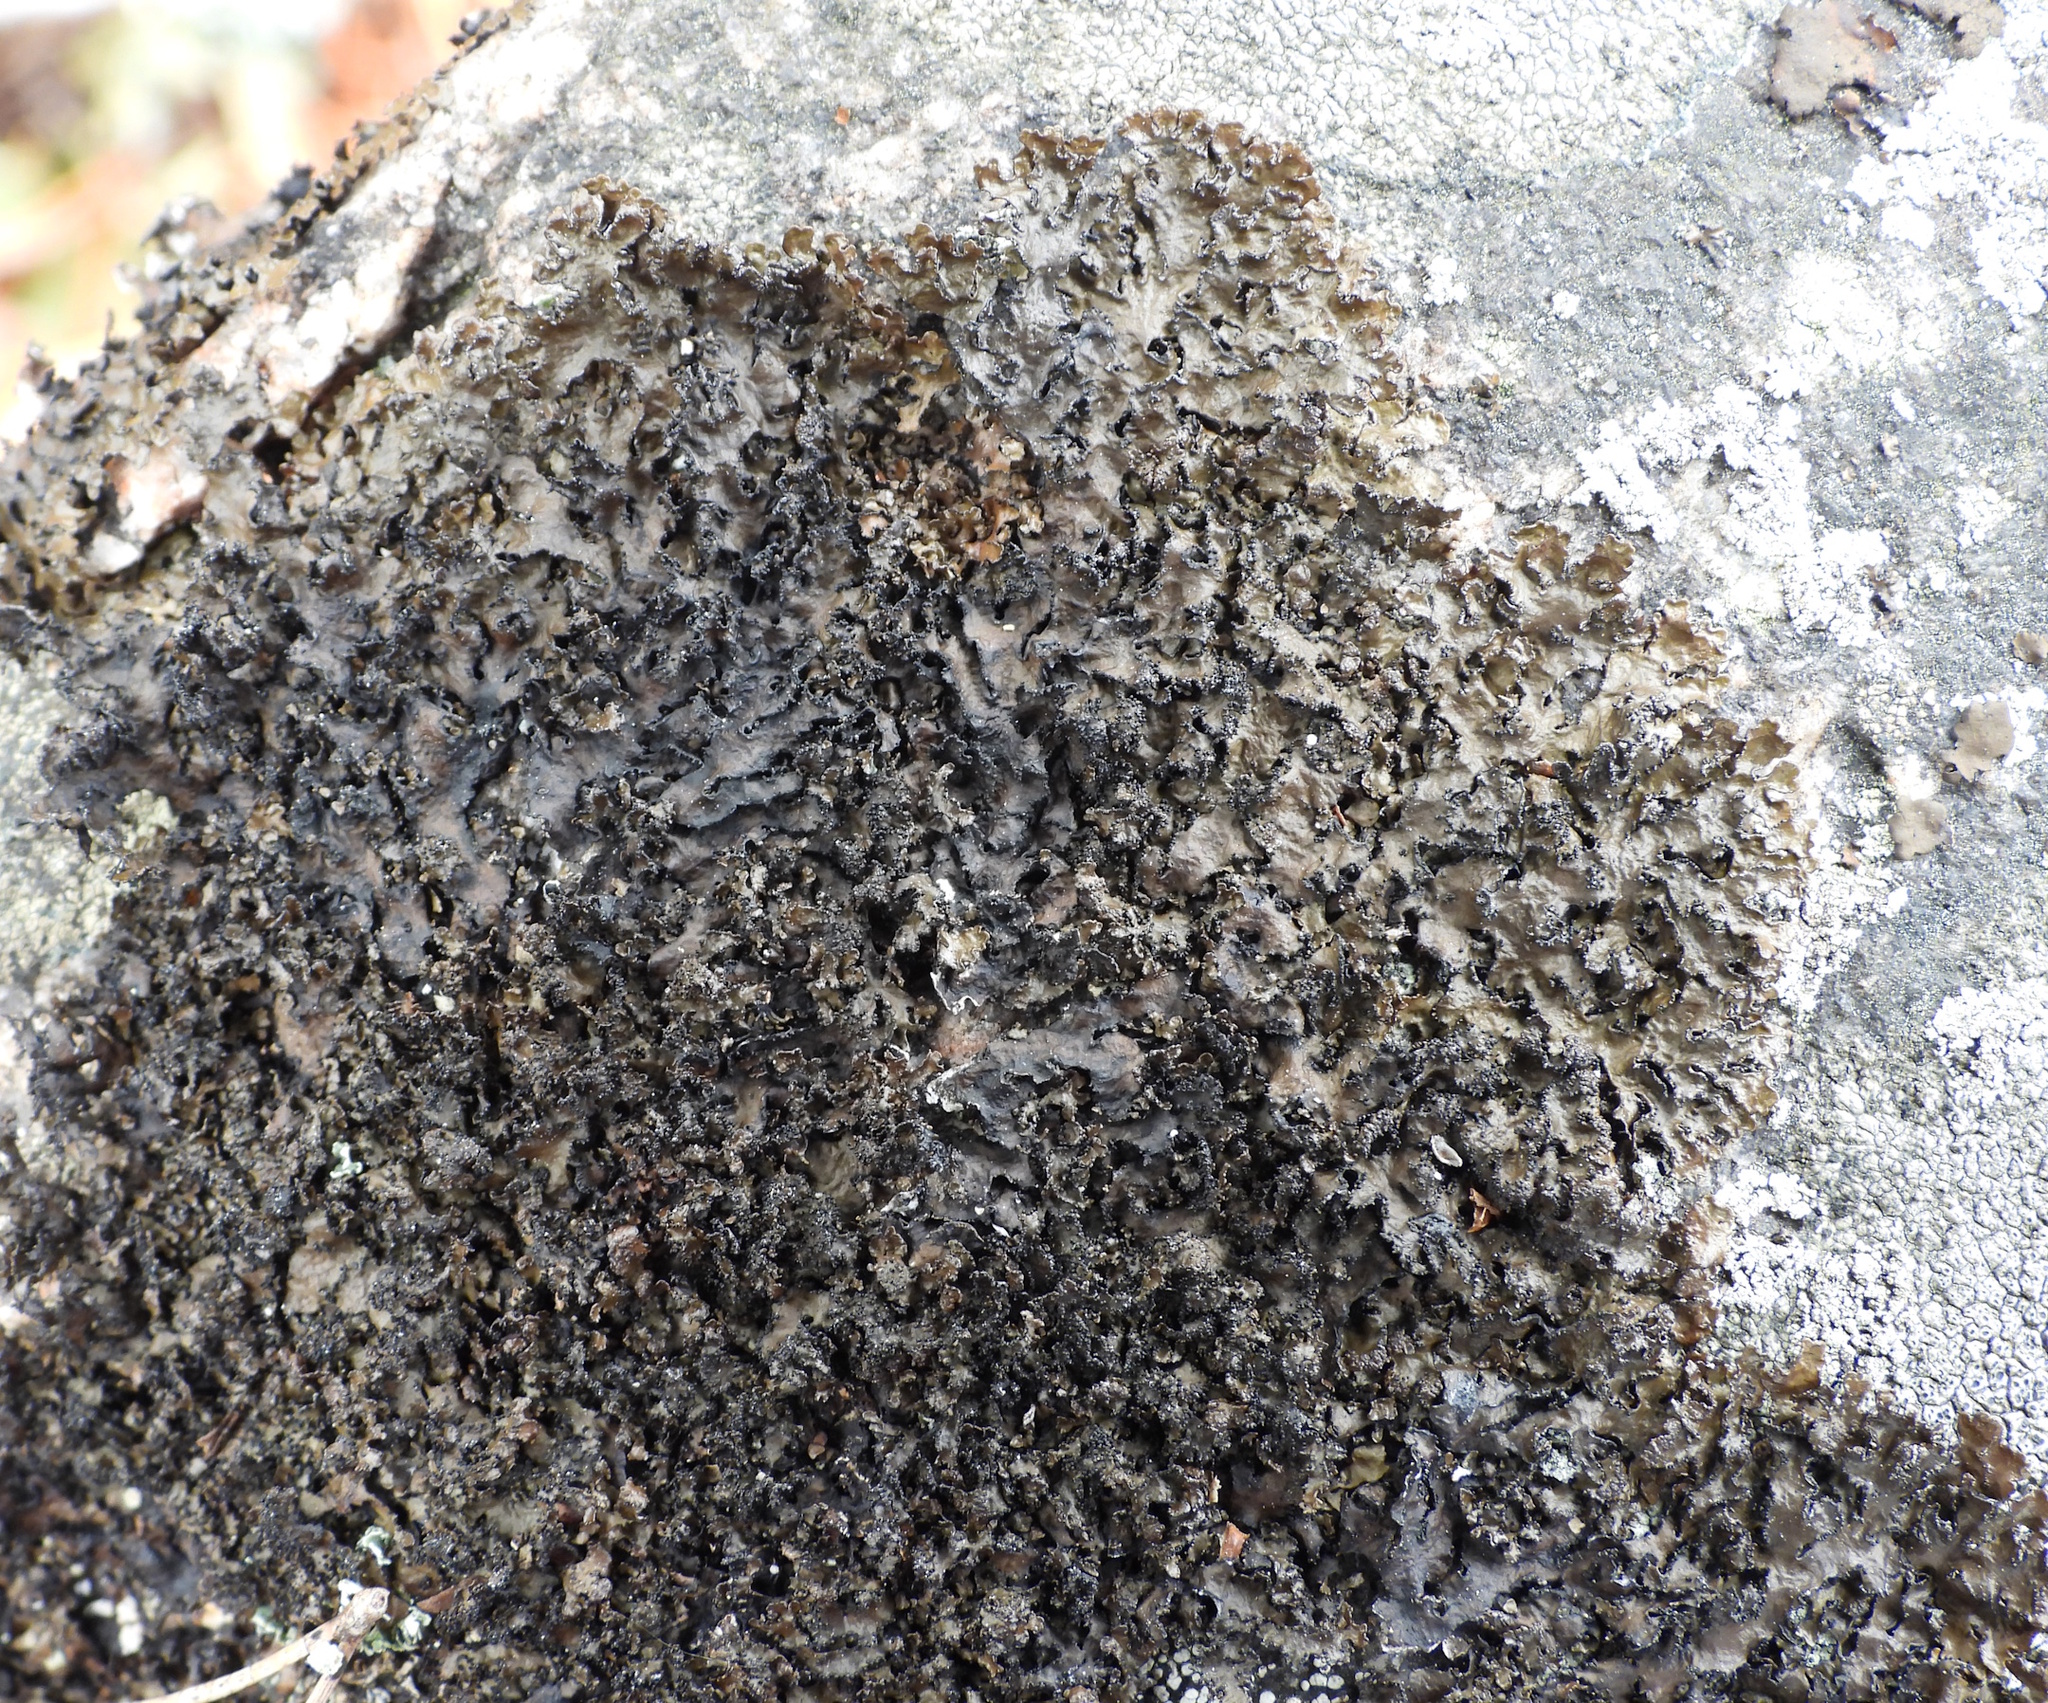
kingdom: Fungi
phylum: Ascomycota
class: Lecanoromycetes
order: Lecanorales
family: Parmeliaceae
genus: Melanelia
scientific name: Melanelia hepatizon
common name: Rimmed camouflage lichen
